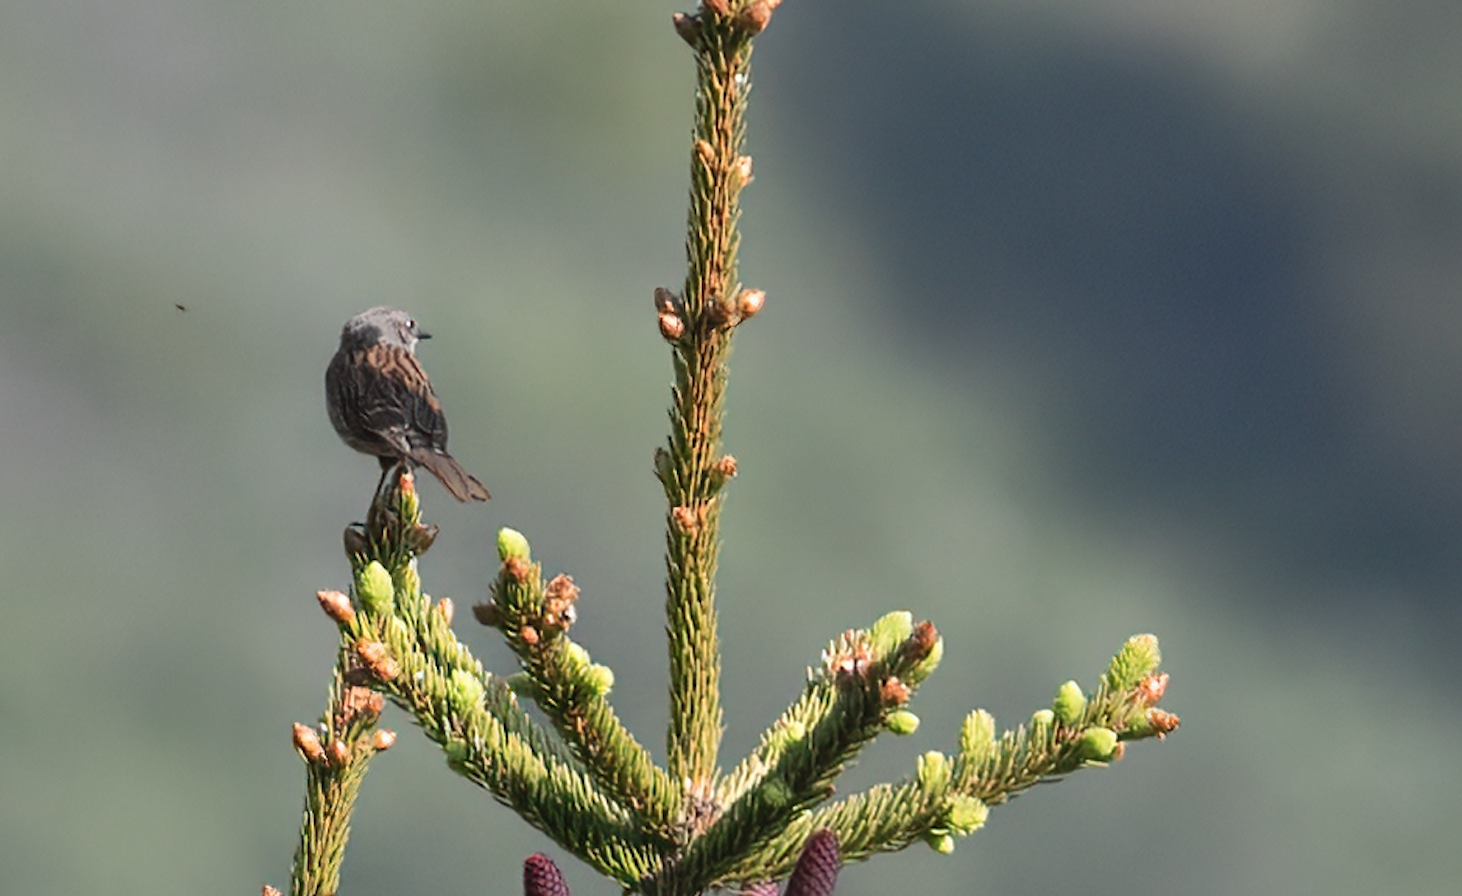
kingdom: Animalia
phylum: Chordata
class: Aves
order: Passeriformes
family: Prunellidae
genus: Prunella
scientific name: Prunella modularis
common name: Dunnock
